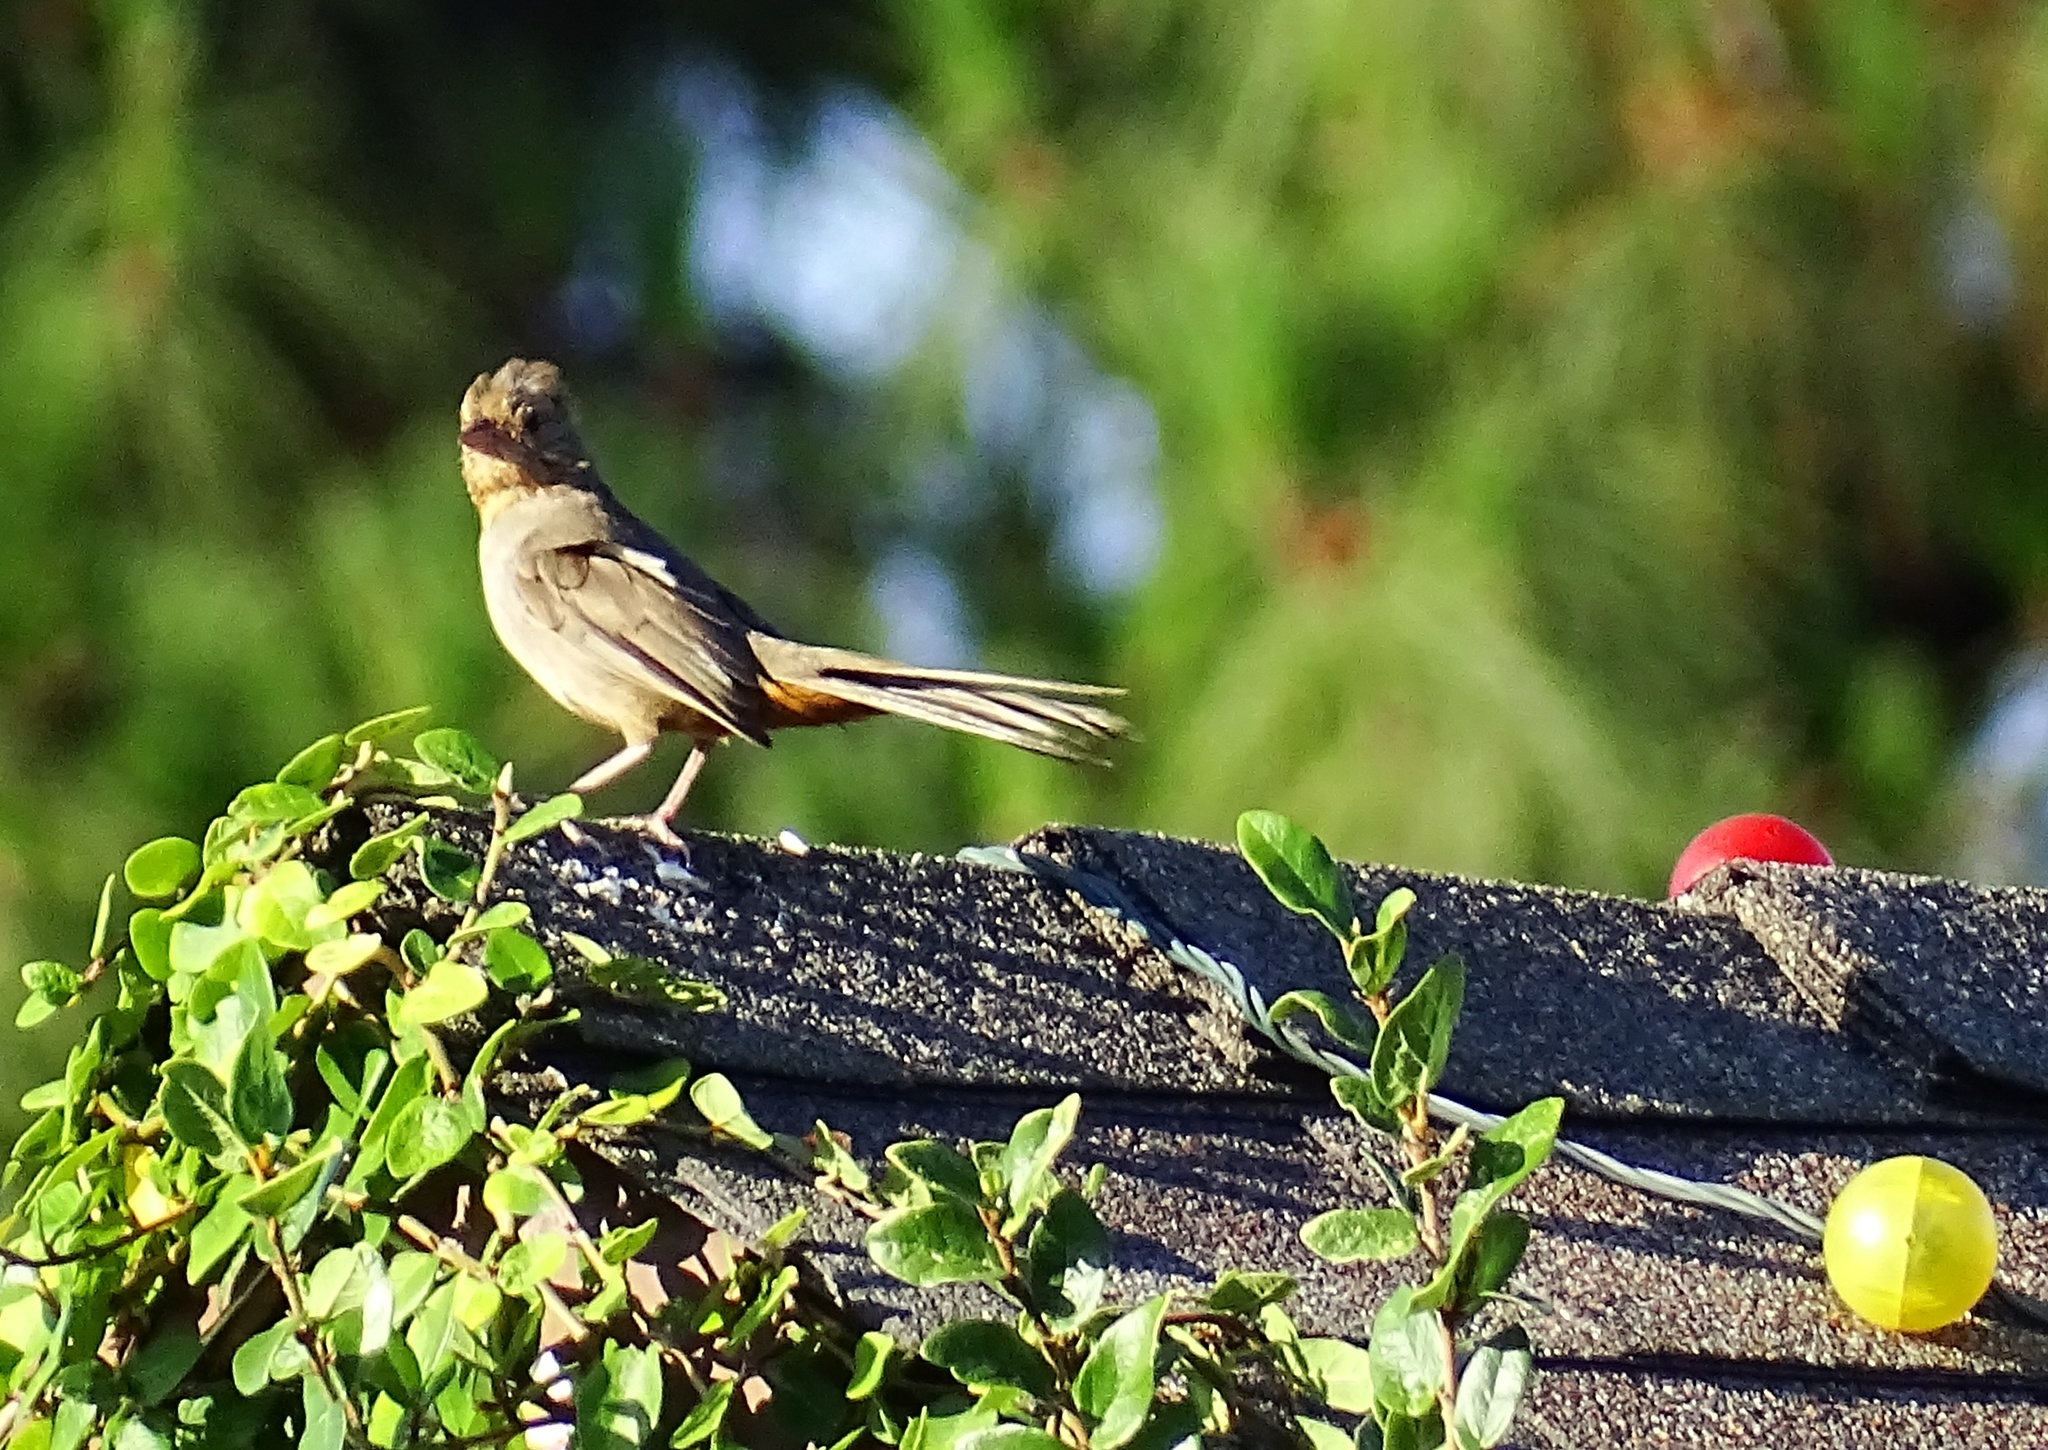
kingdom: Animalia
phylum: Chordata
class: Aves
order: Passeriformes
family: Passerellidae
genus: Melozone
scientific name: Melozone crissalis
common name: California towhee
